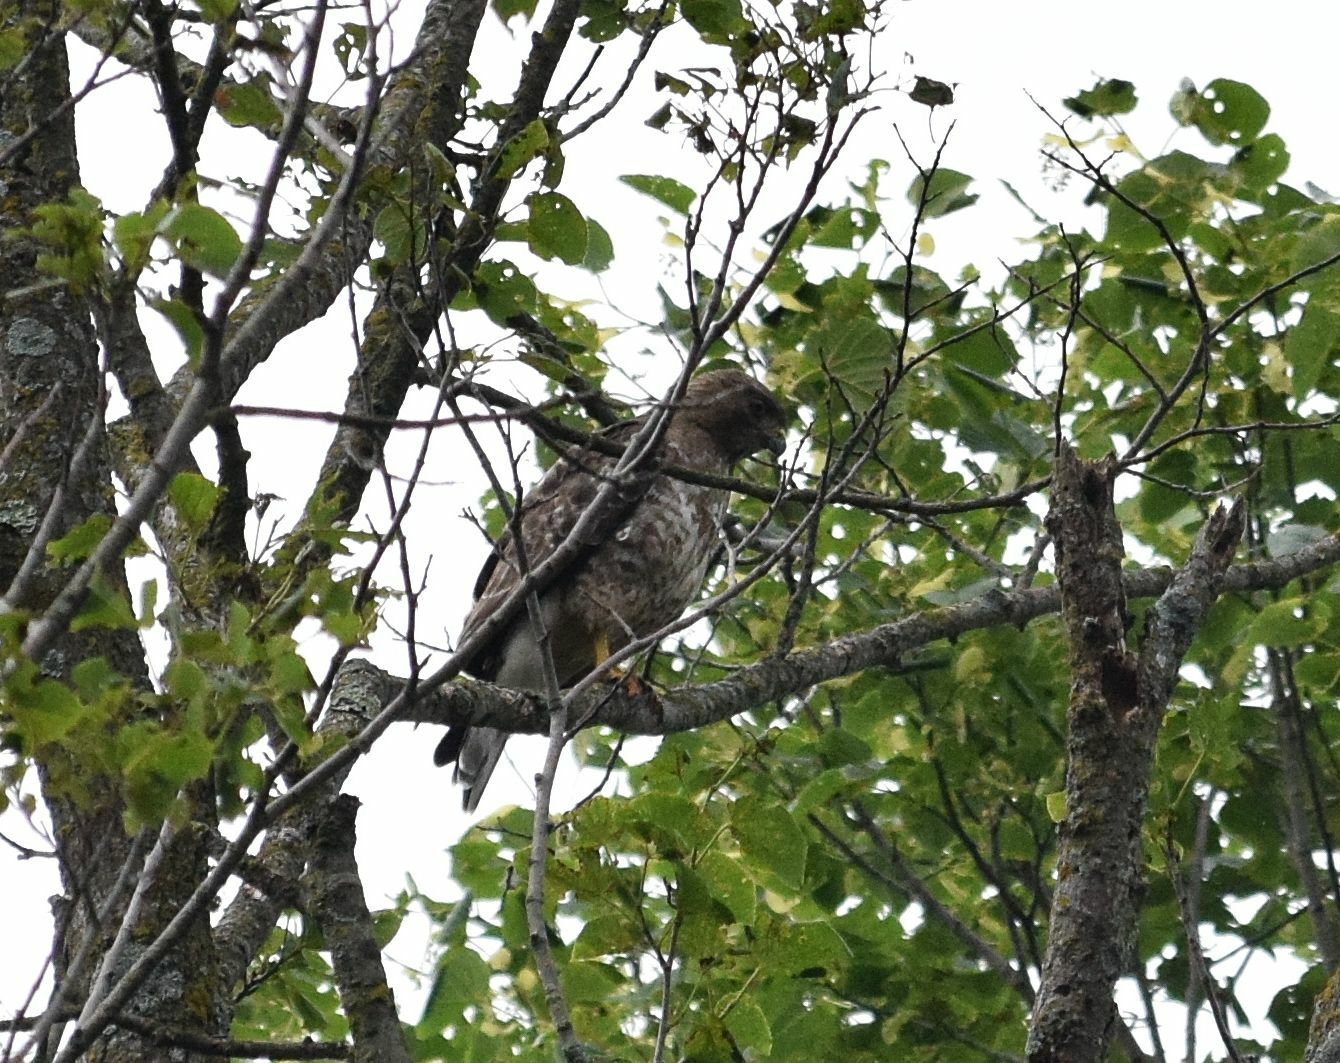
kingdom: Animalia
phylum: Chordata
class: Aves
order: Accipitriformes
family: Accipitridae
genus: Buteo
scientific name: Buteo platypterus
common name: Broad-winged hawk
